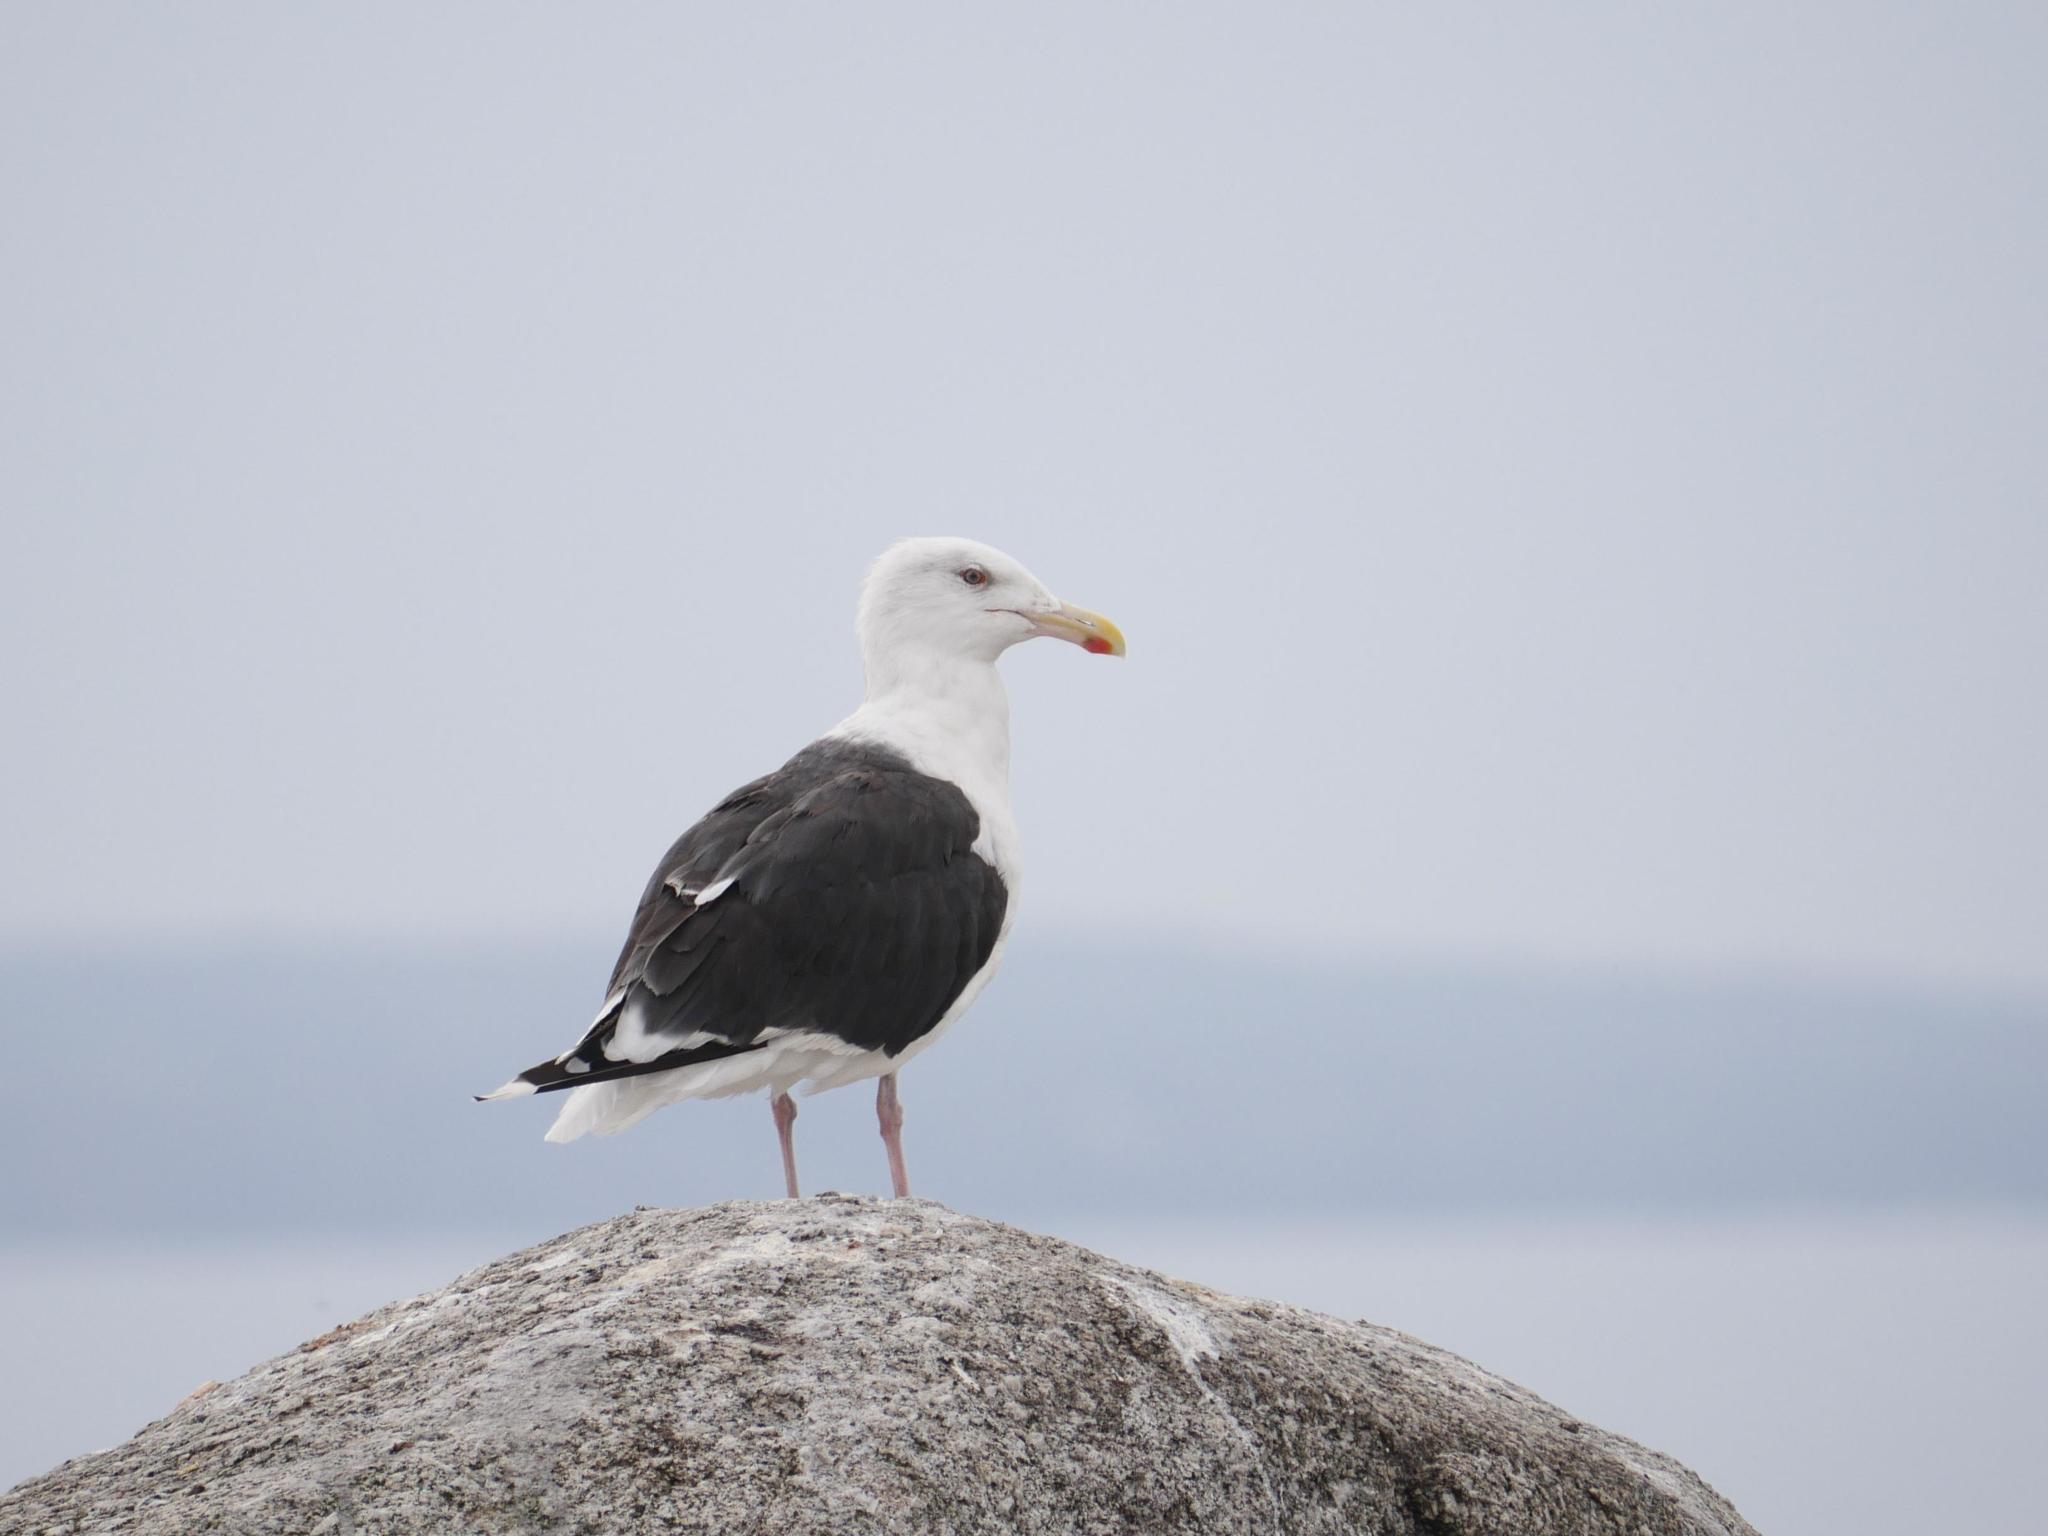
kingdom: Animalia
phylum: Chordata
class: Aves
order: Charadriiformes
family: Laridae
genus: Larus
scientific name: Larus marinus
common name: Great black-backed gull
